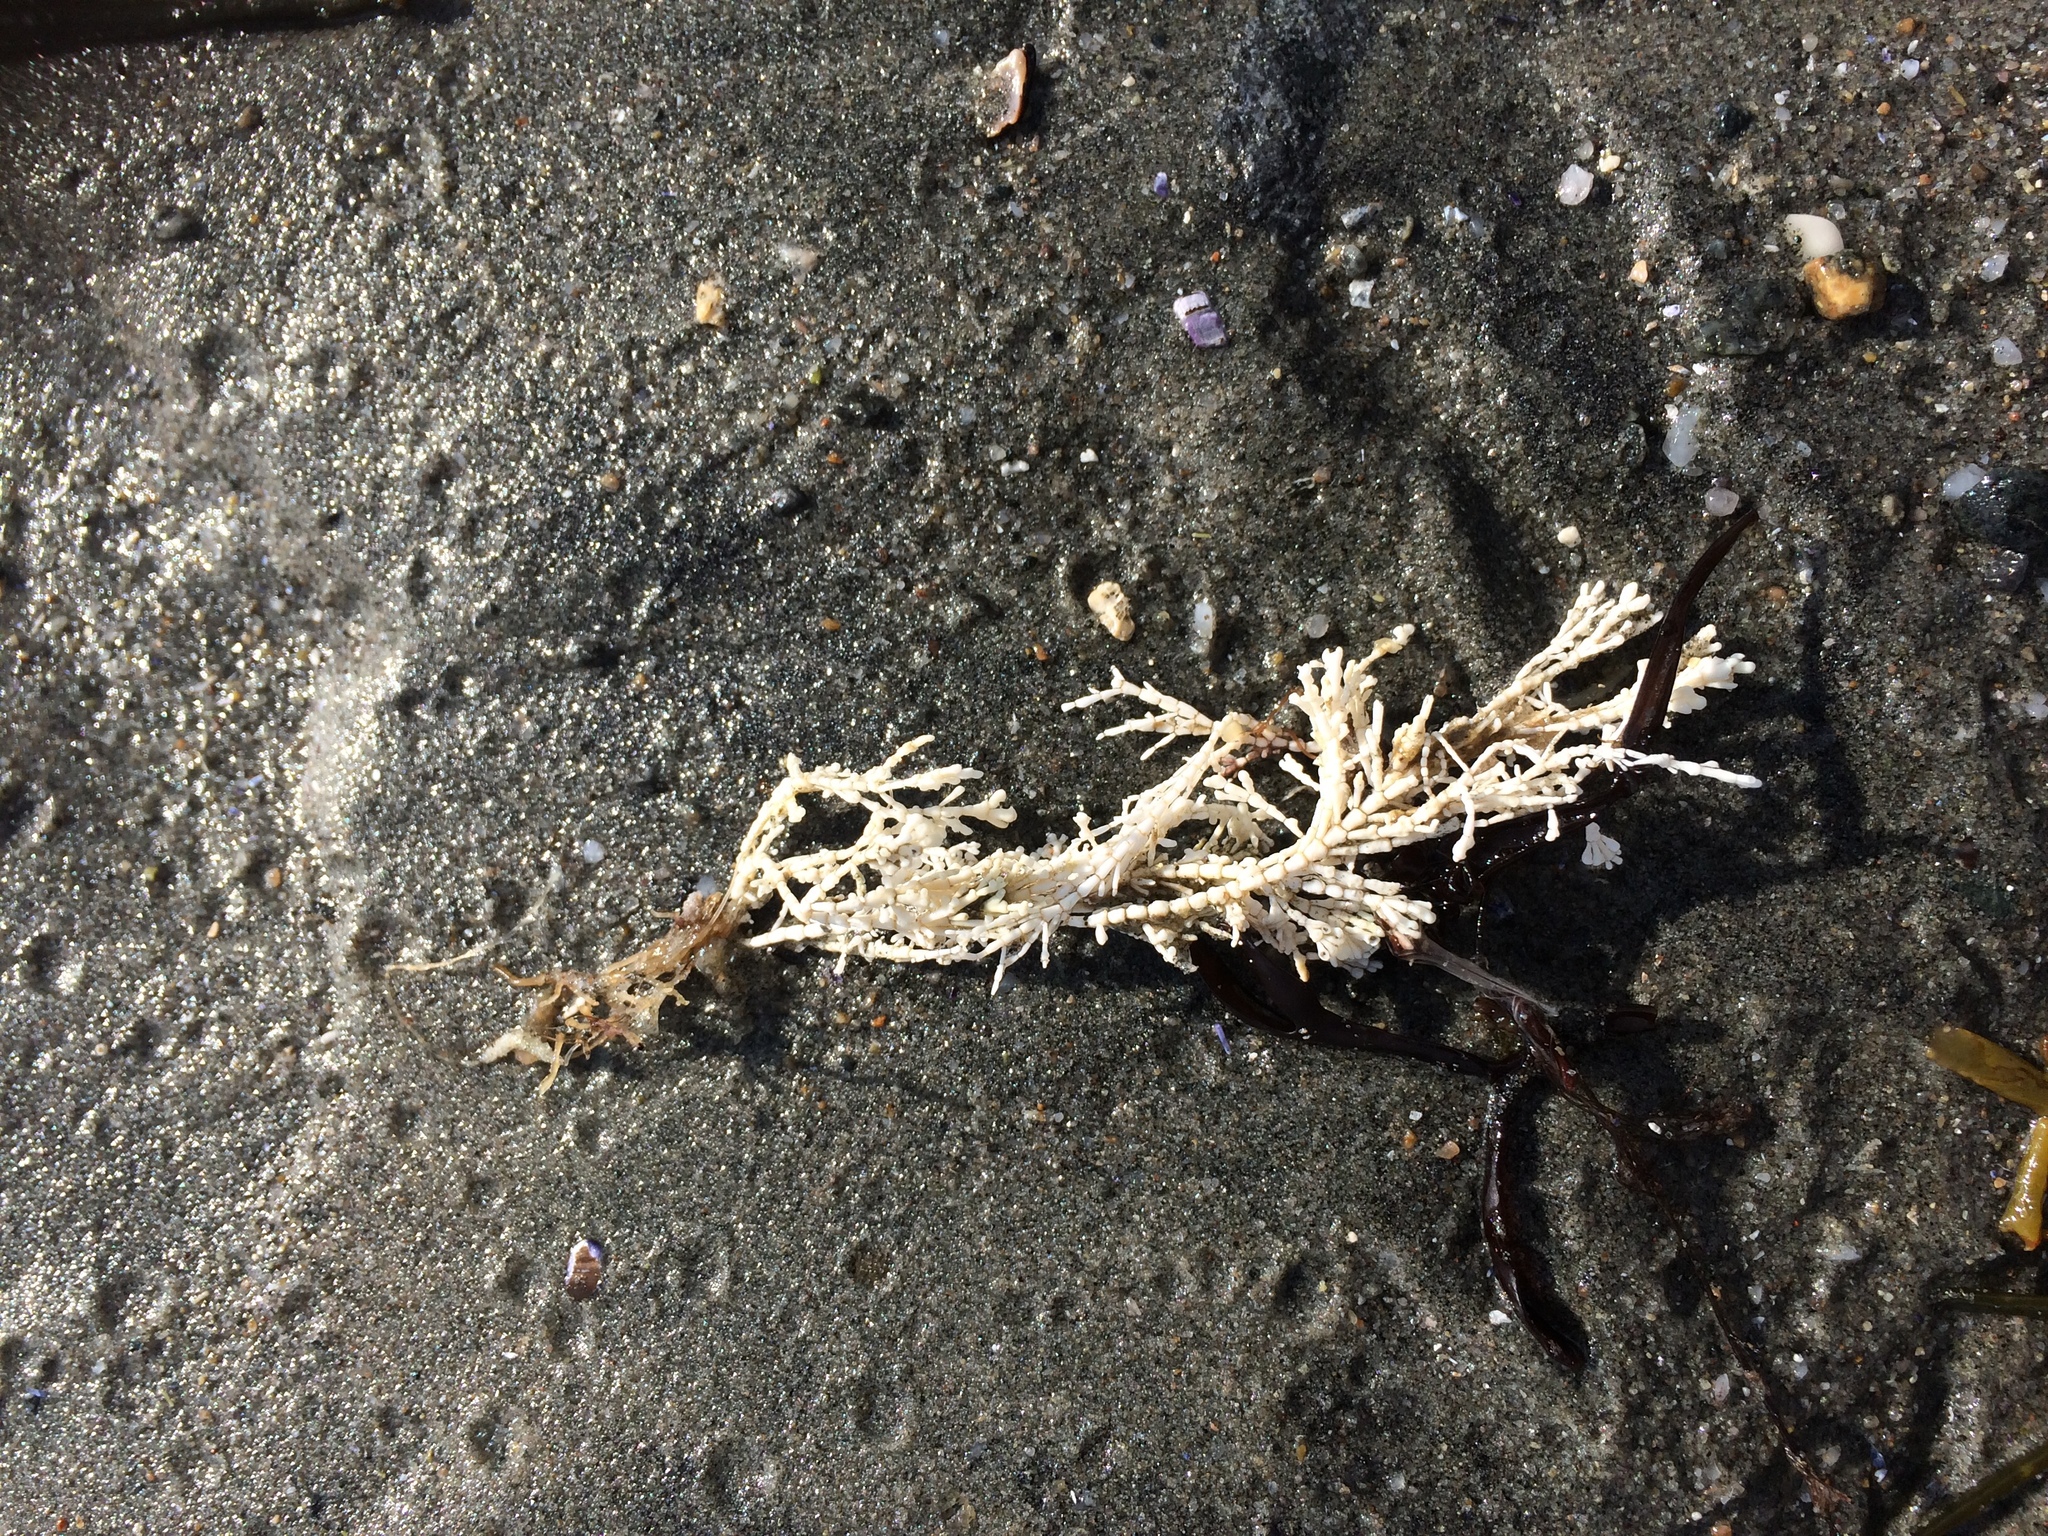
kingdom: Plantae
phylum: Rhodophyta
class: Florideophyceae
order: Corallinales
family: Corallinaceae
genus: Corallina
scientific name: Corallina officinalis
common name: Coral weed
